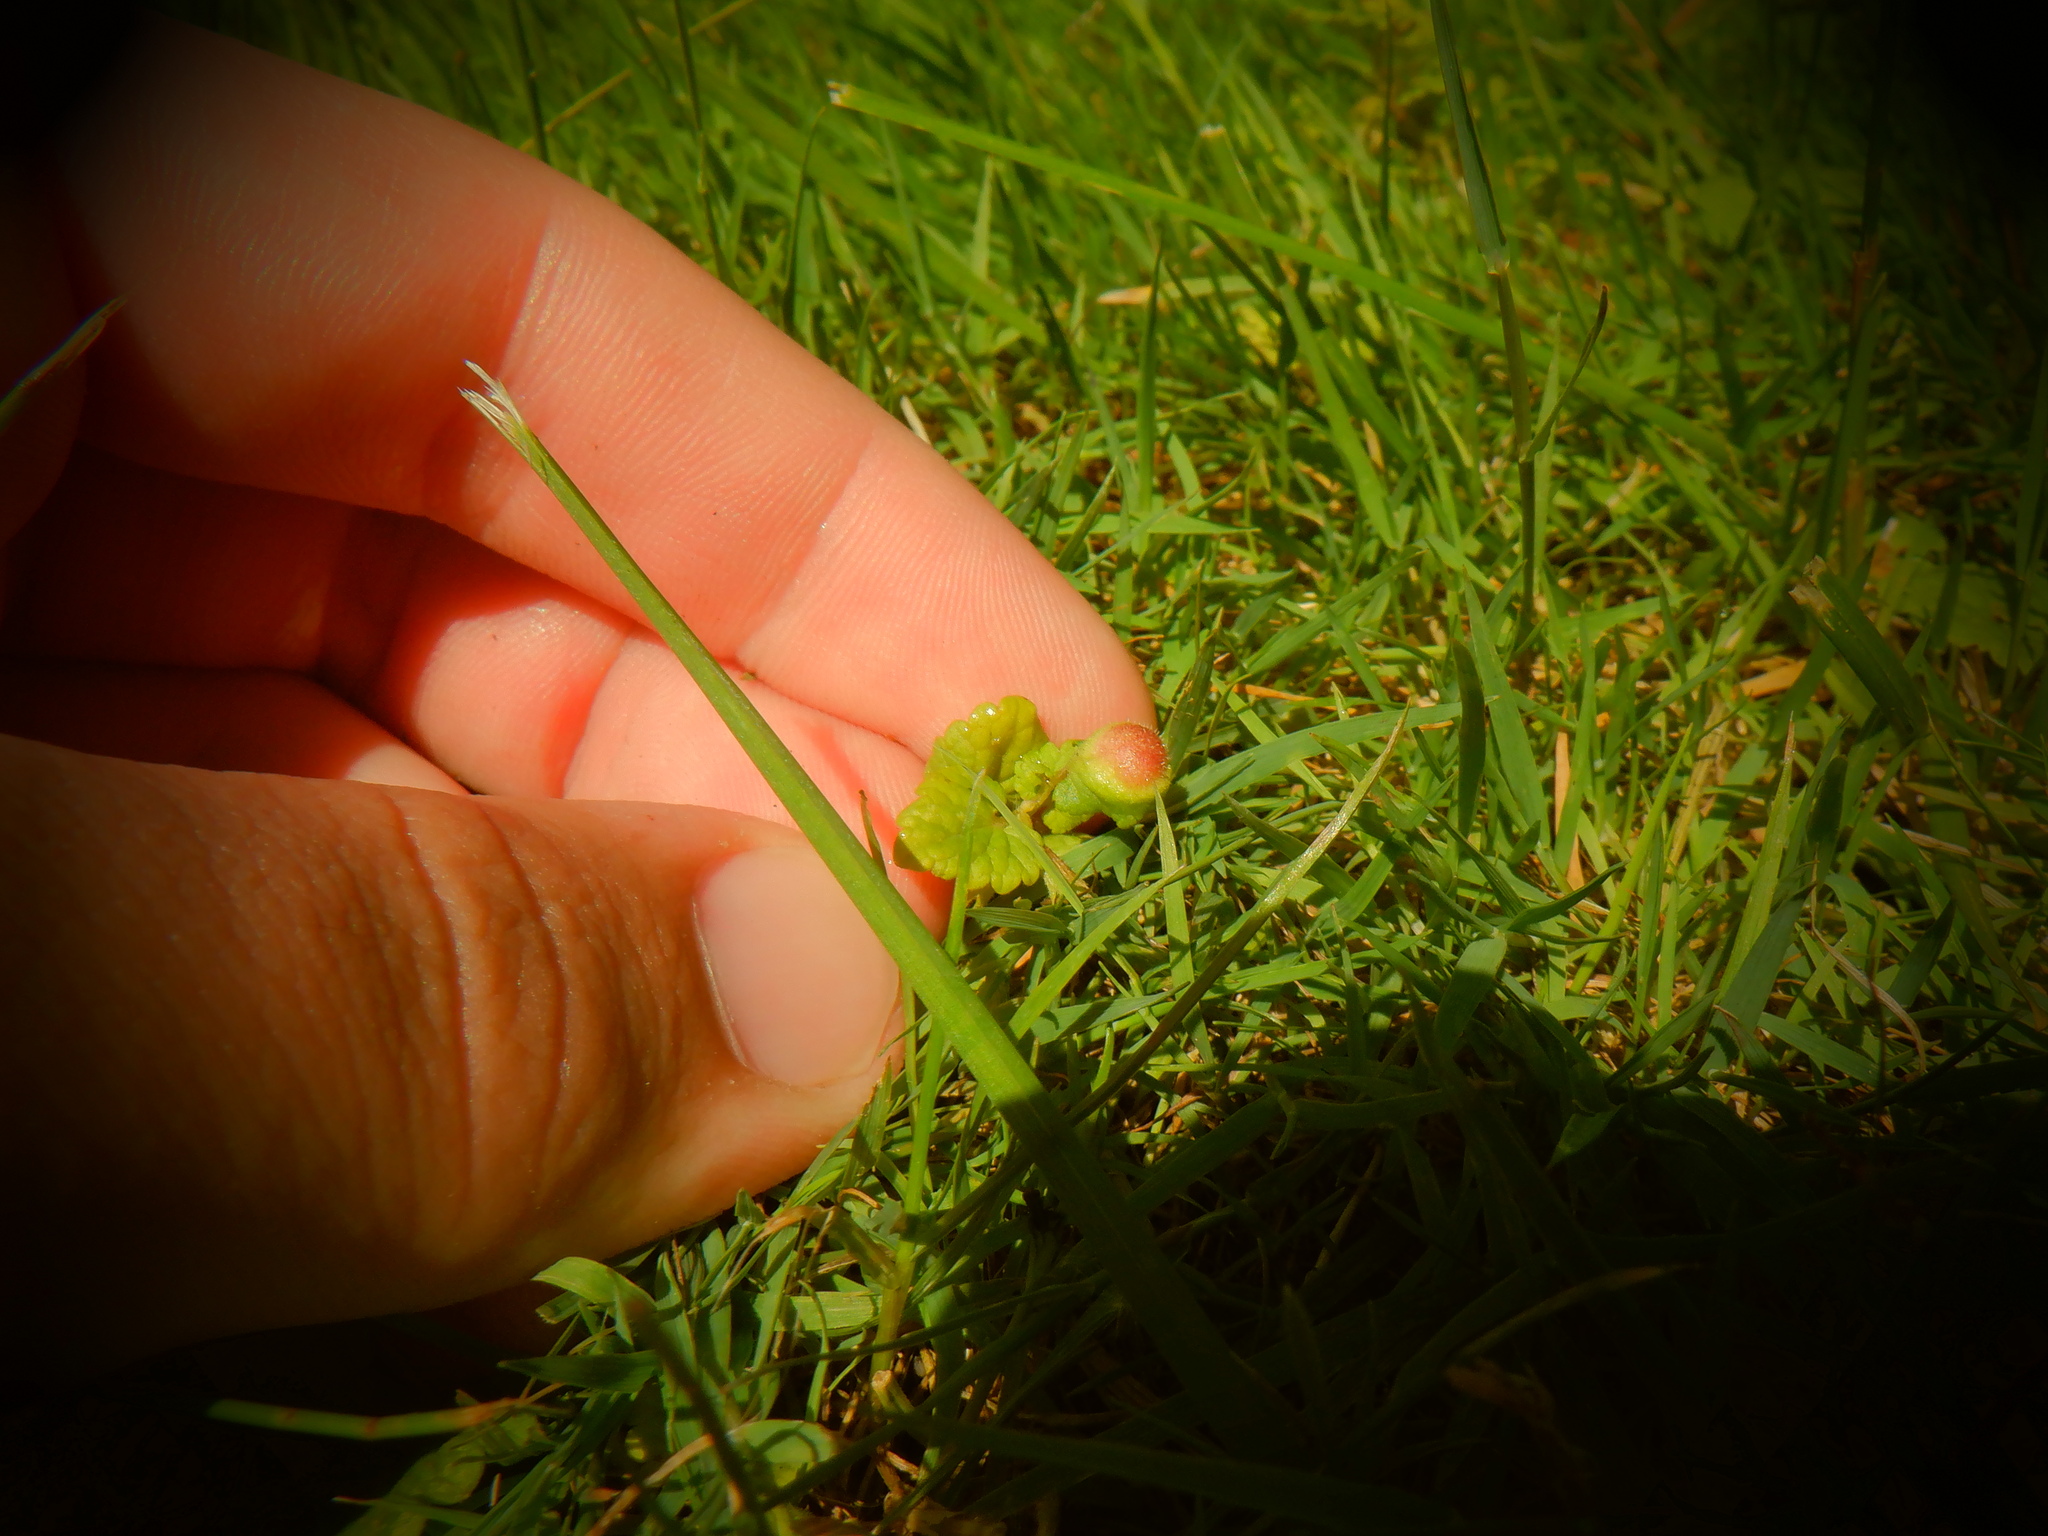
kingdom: Animalia
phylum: Arthropoda
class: Insecta
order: Hymenoptera
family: Cynipidae
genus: Liposthenes
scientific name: Liposthenes glechomae
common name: Gall wasp
